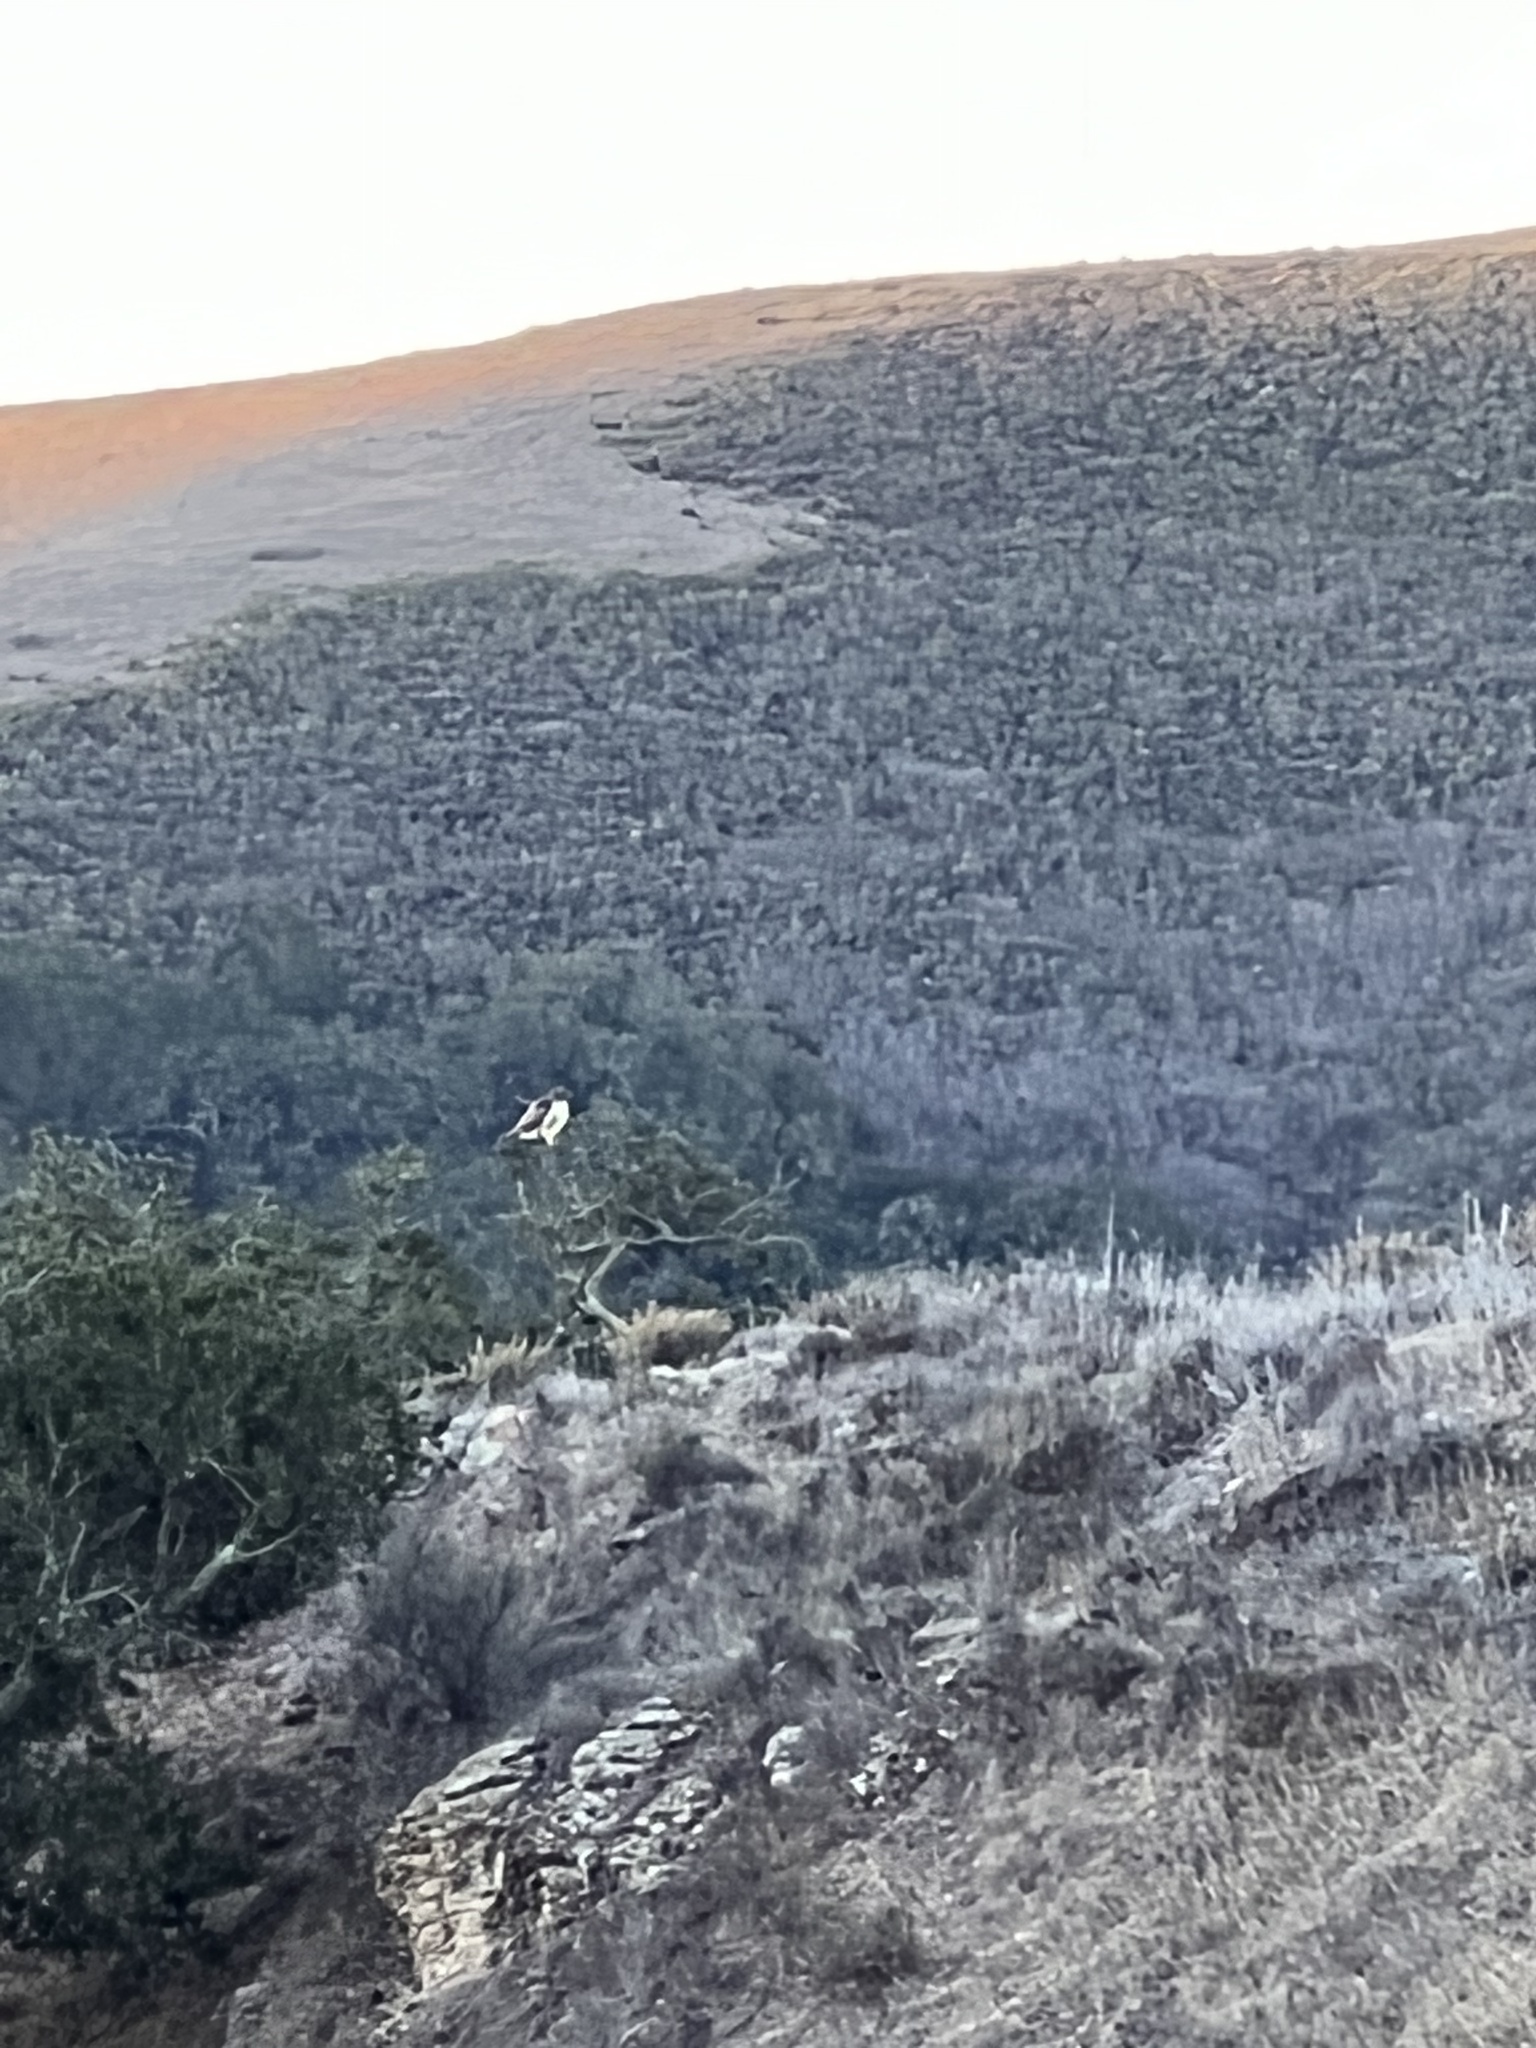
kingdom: Animalia
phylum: Chordata
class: Aves
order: Accipitriformes
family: Accipitridae
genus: Buteo
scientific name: Buteo jamaicensis
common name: Red-tailed hawk
